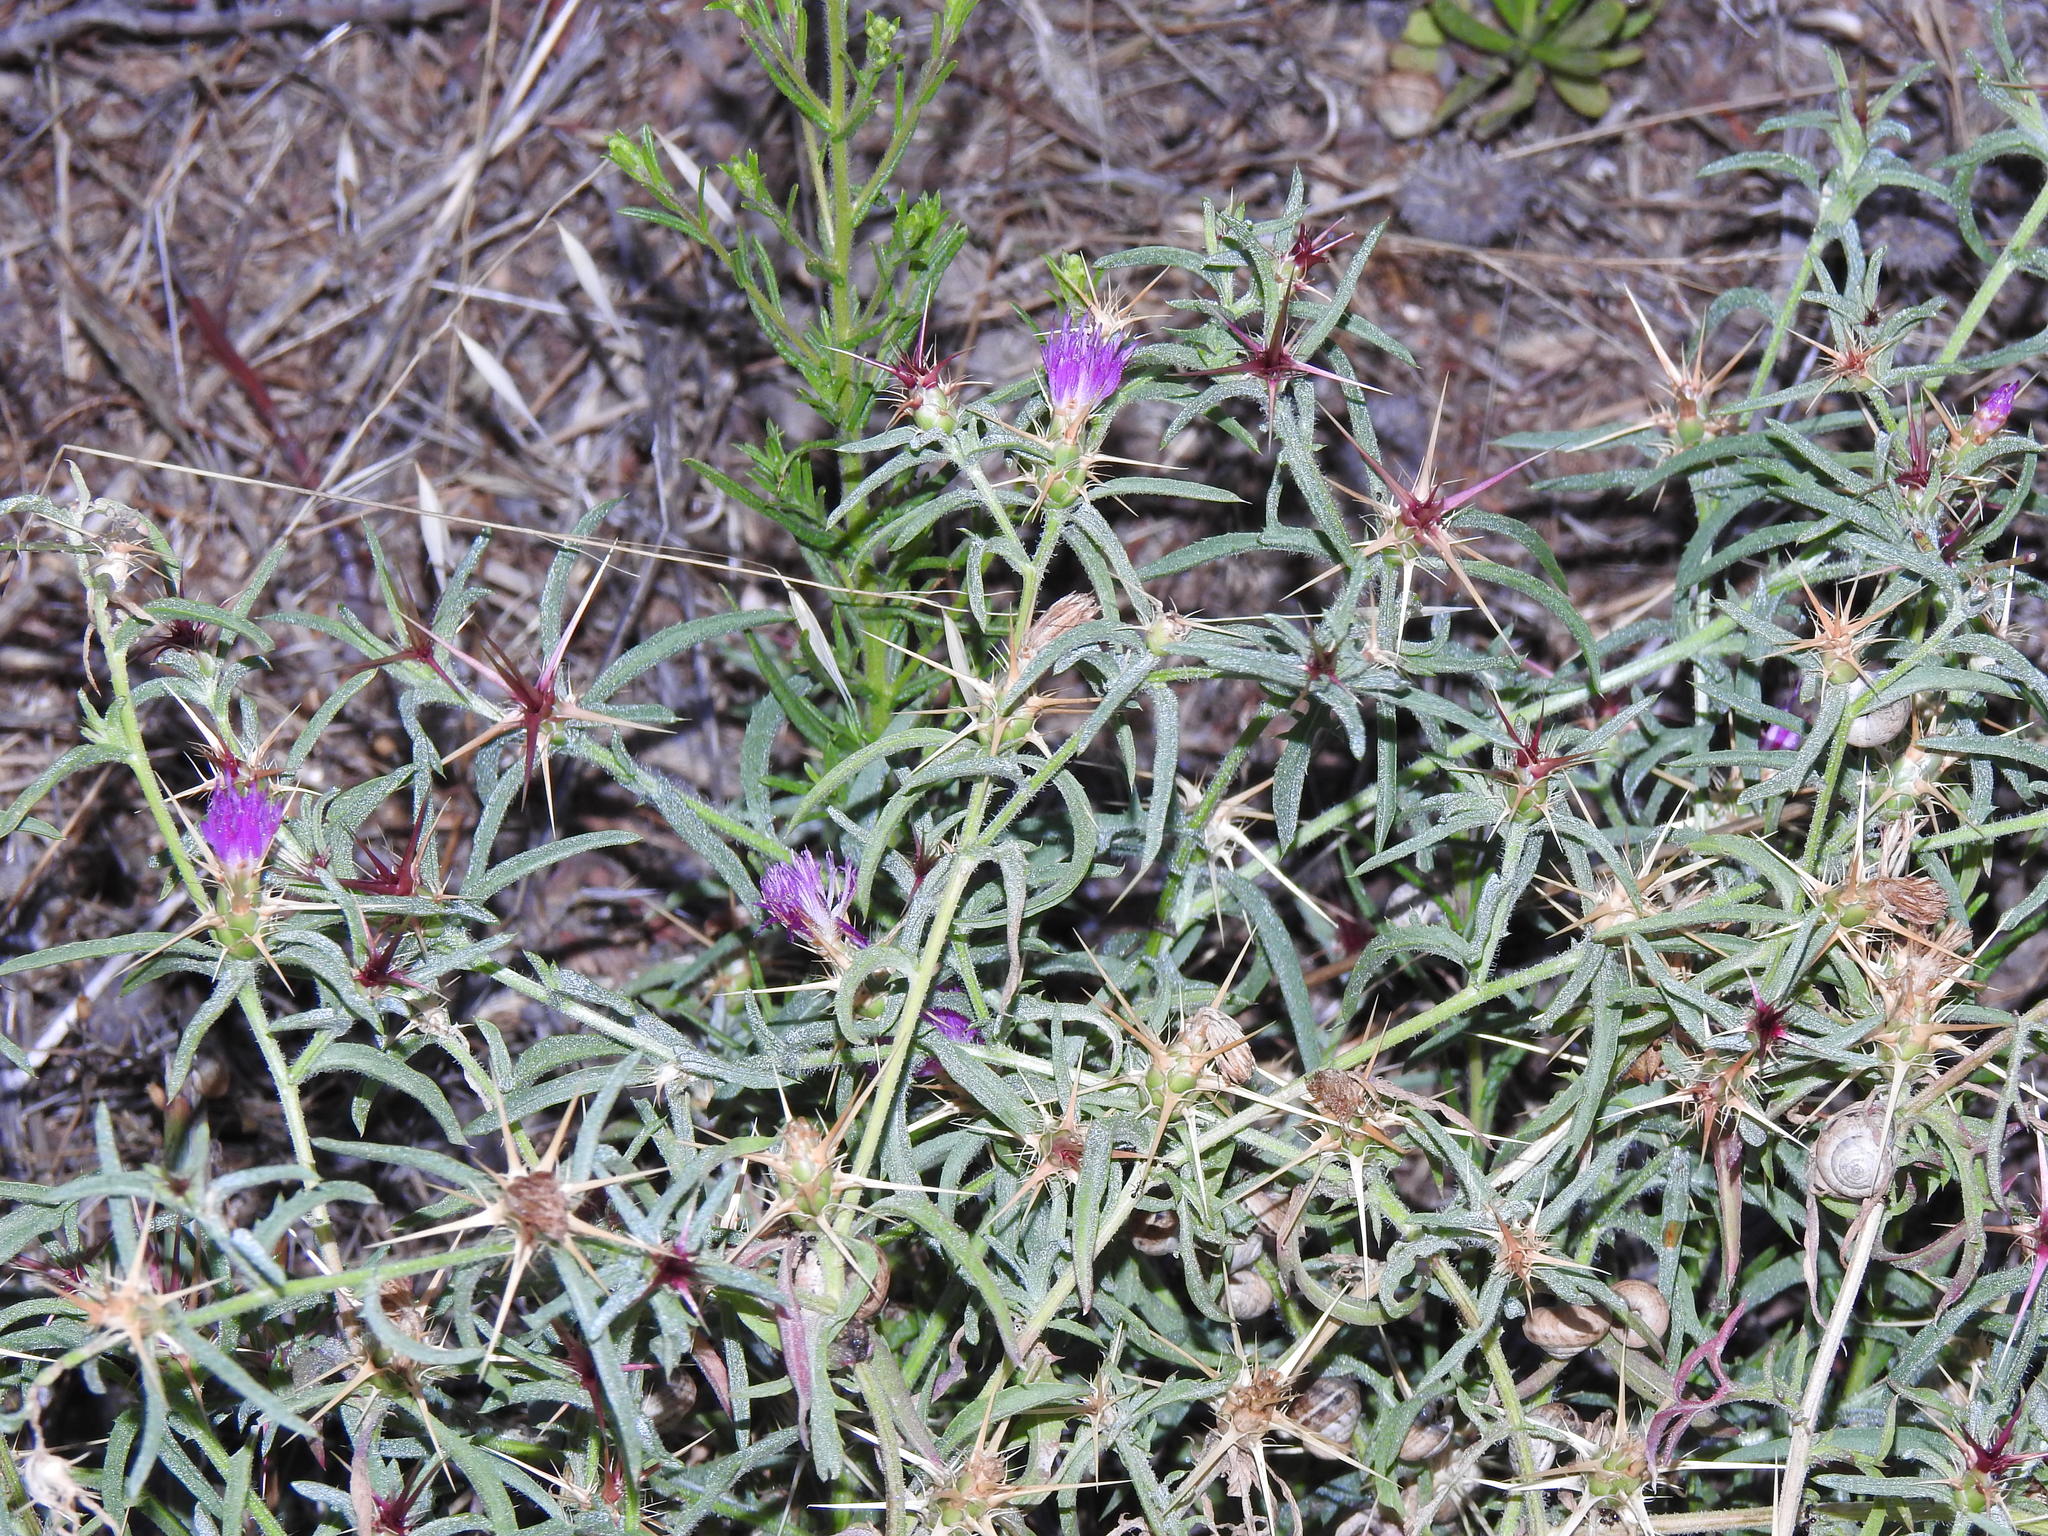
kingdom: Plantae
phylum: Tracheophyta
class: Magnoliopsida
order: Asterales
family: Asteraceae
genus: Centaurea
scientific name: Centaurea calcitrapa
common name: Red star-thistle
